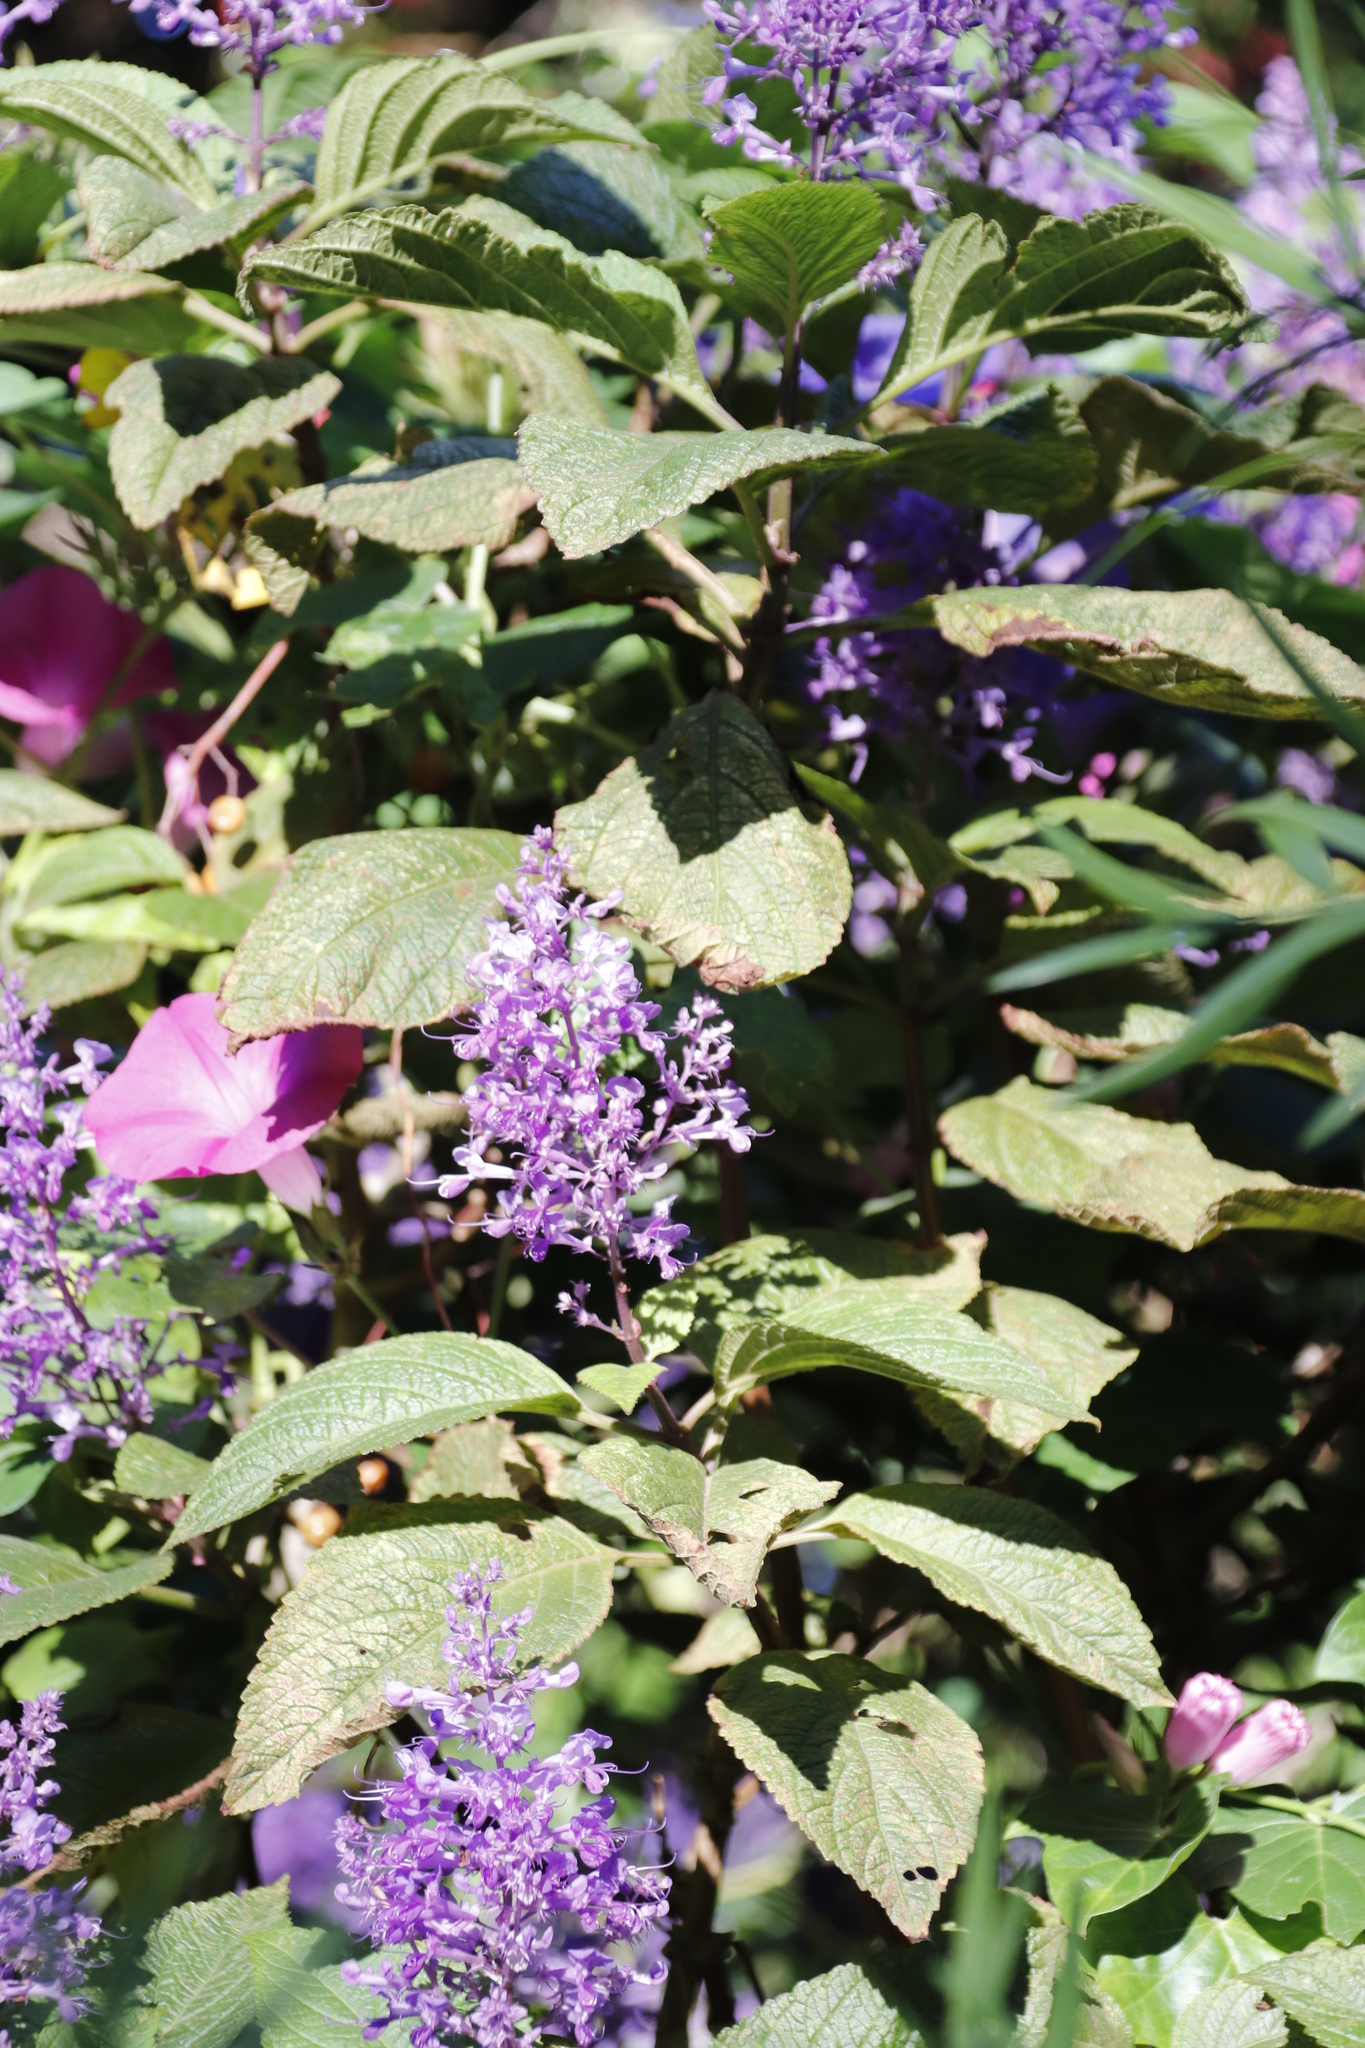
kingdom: Plantae
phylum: Tracheophyta
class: Magnoliopsida
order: Lamiales
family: Lamiaceae
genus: Plectranthus
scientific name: Plectranthus ecklonii
